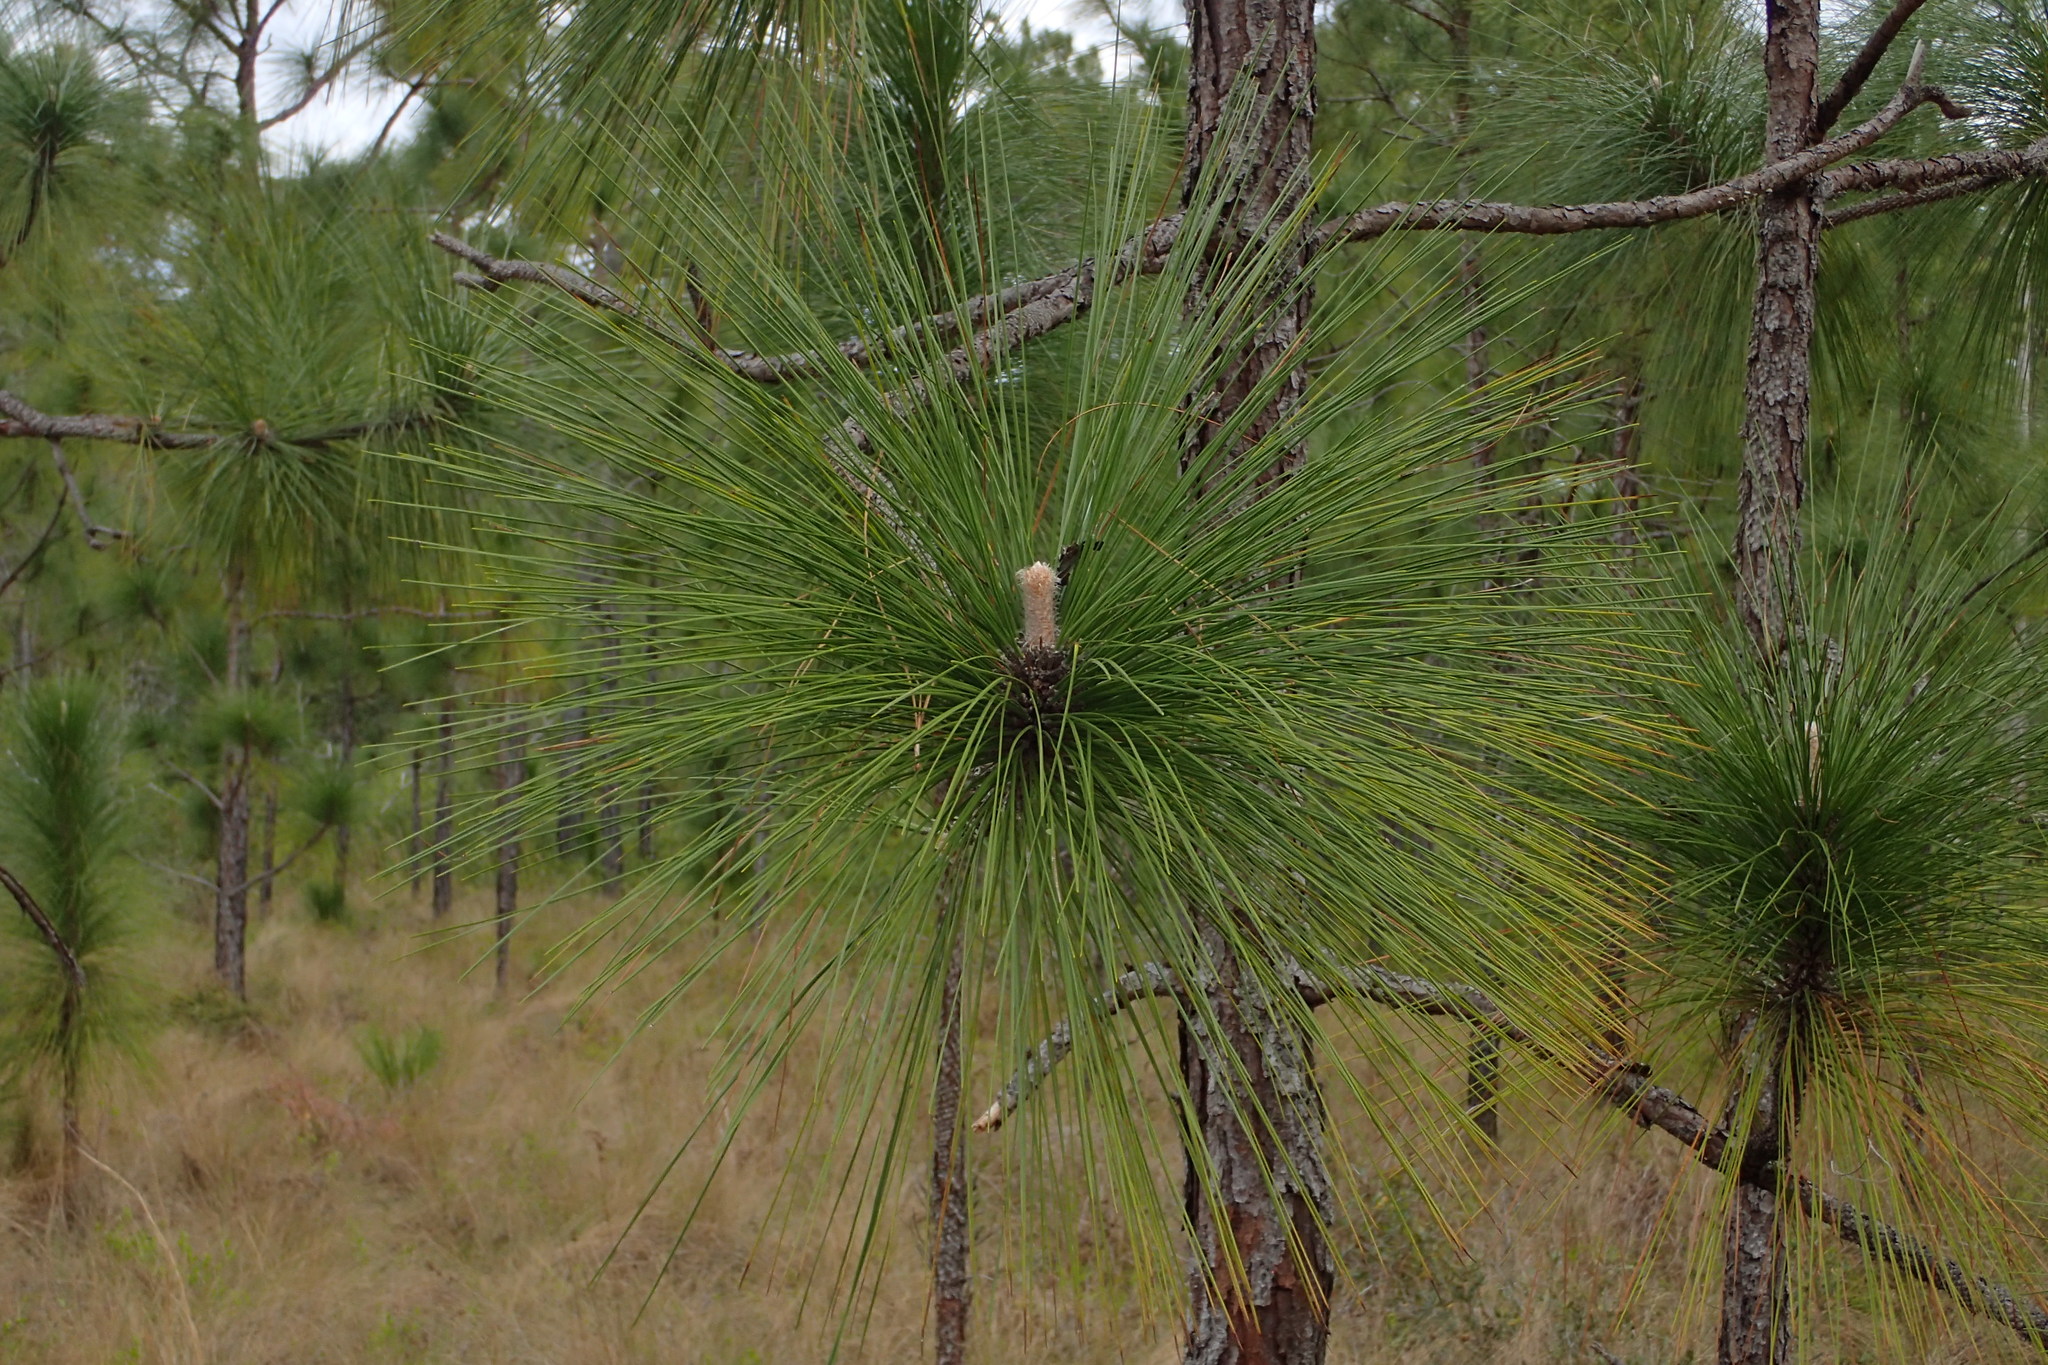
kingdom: Plantae
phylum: Tracheophyta
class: Pinopsida
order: Pinales
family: Pinaceae
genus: Pinus
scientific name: Pinus palustris
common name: Longleaf pine
